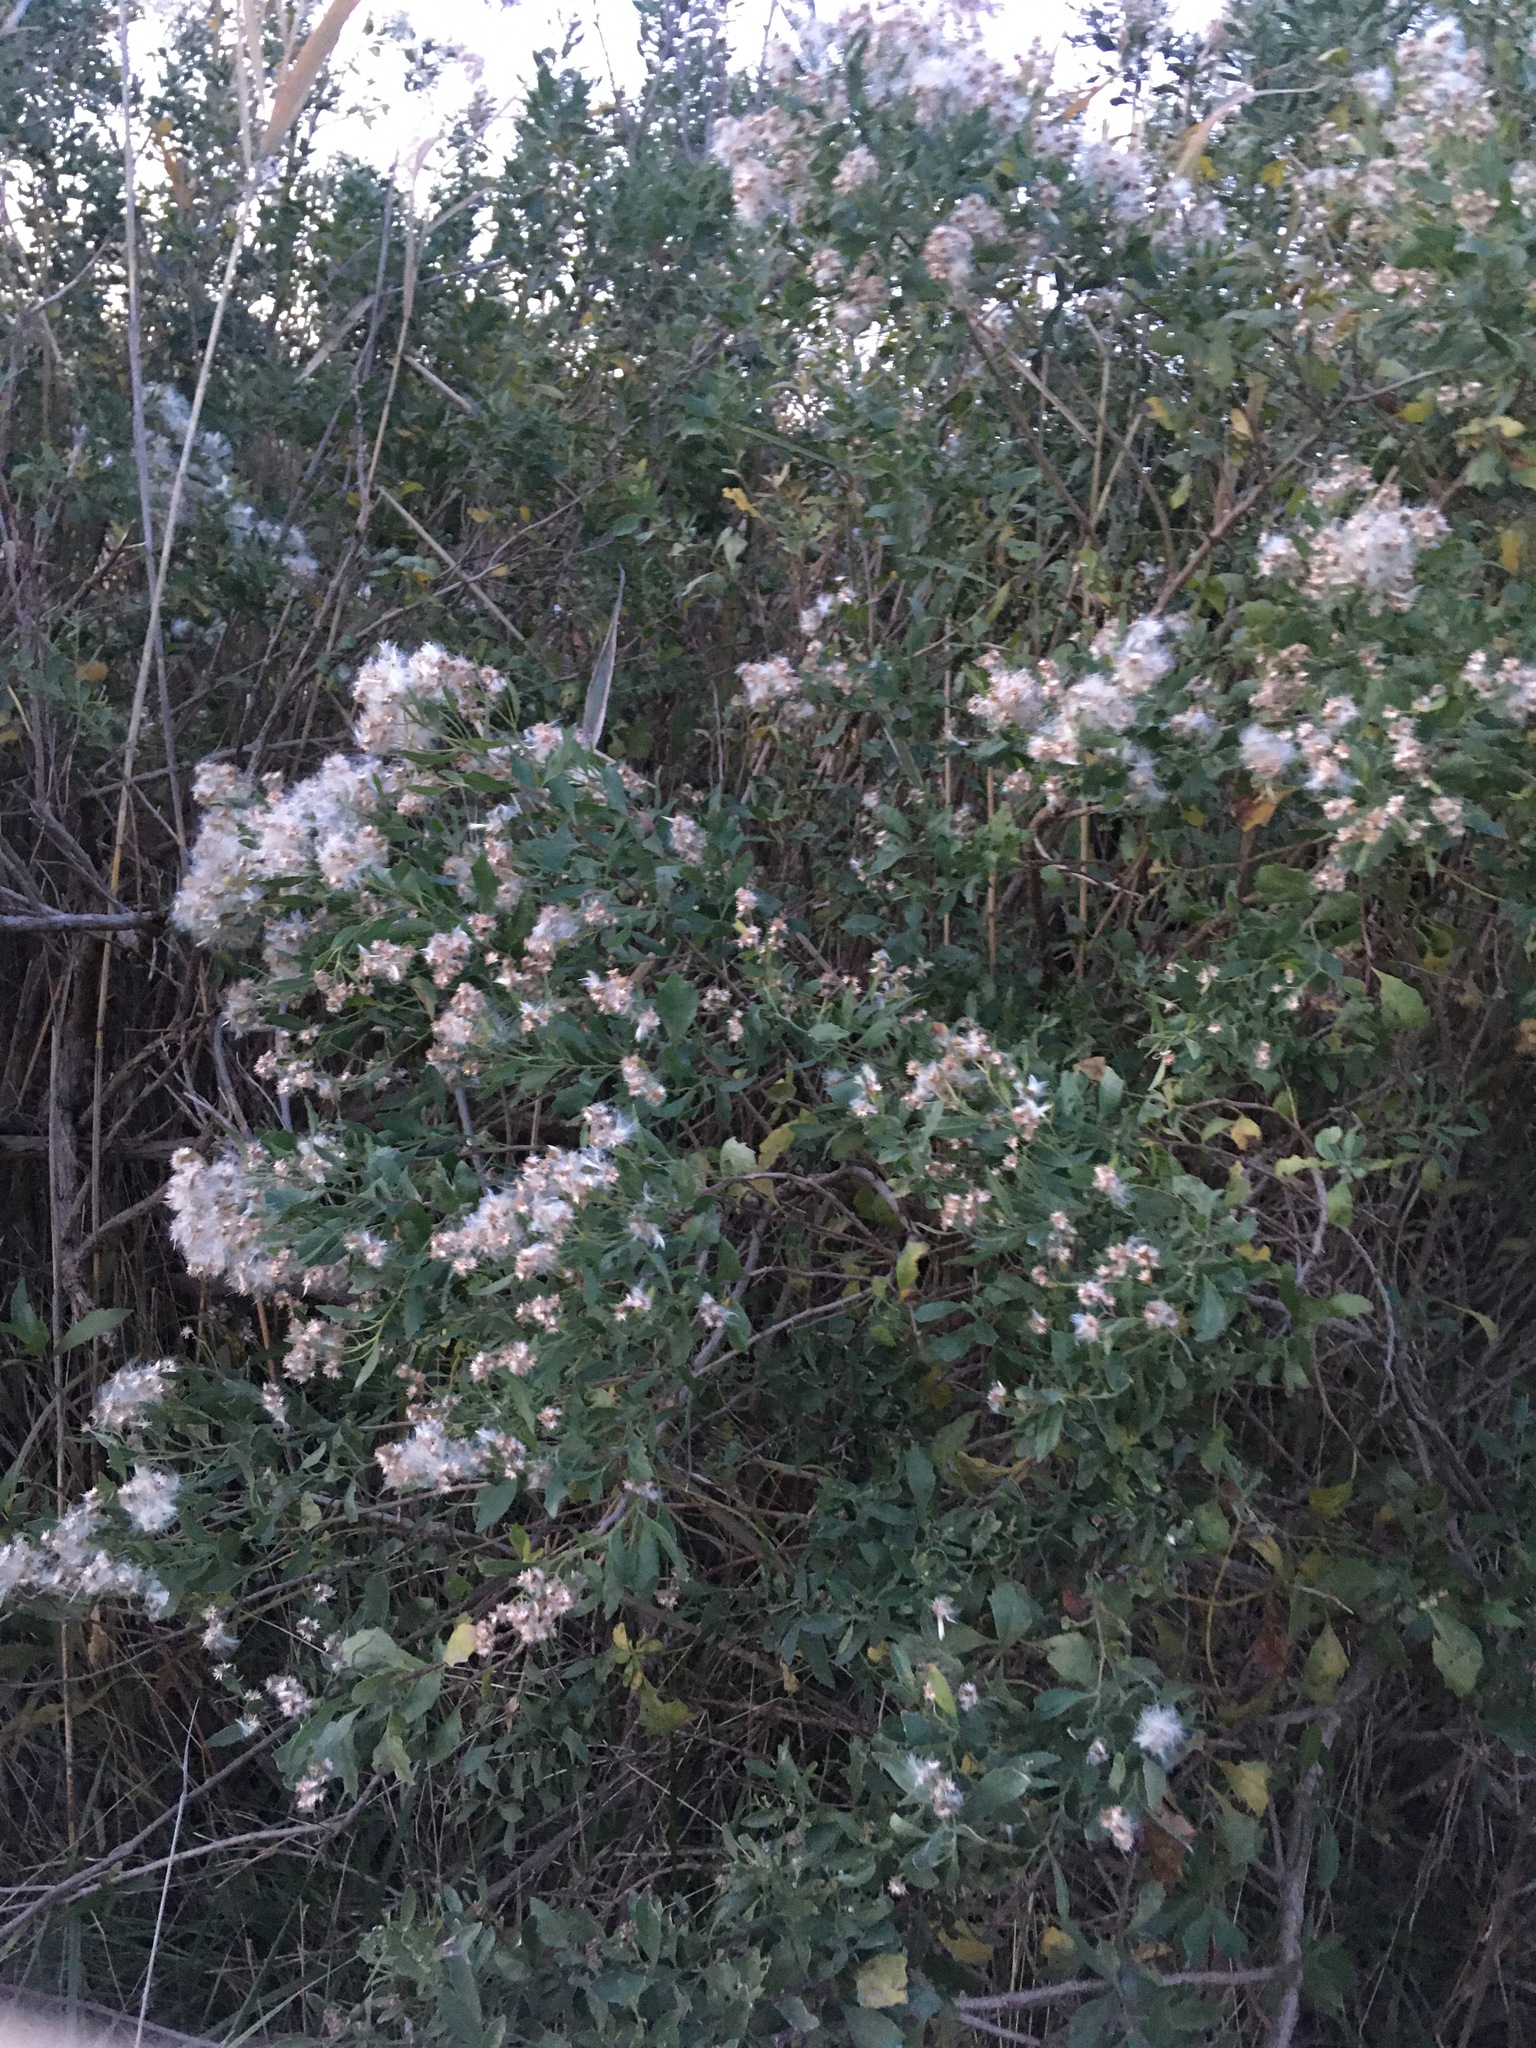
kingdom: Plantae
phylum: Tracheophyta
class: Magnoliopsida
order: Asterales
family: Asteraceae
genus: Baccharis
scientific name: Baccharis halimifolia
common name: Eastern baccharis
